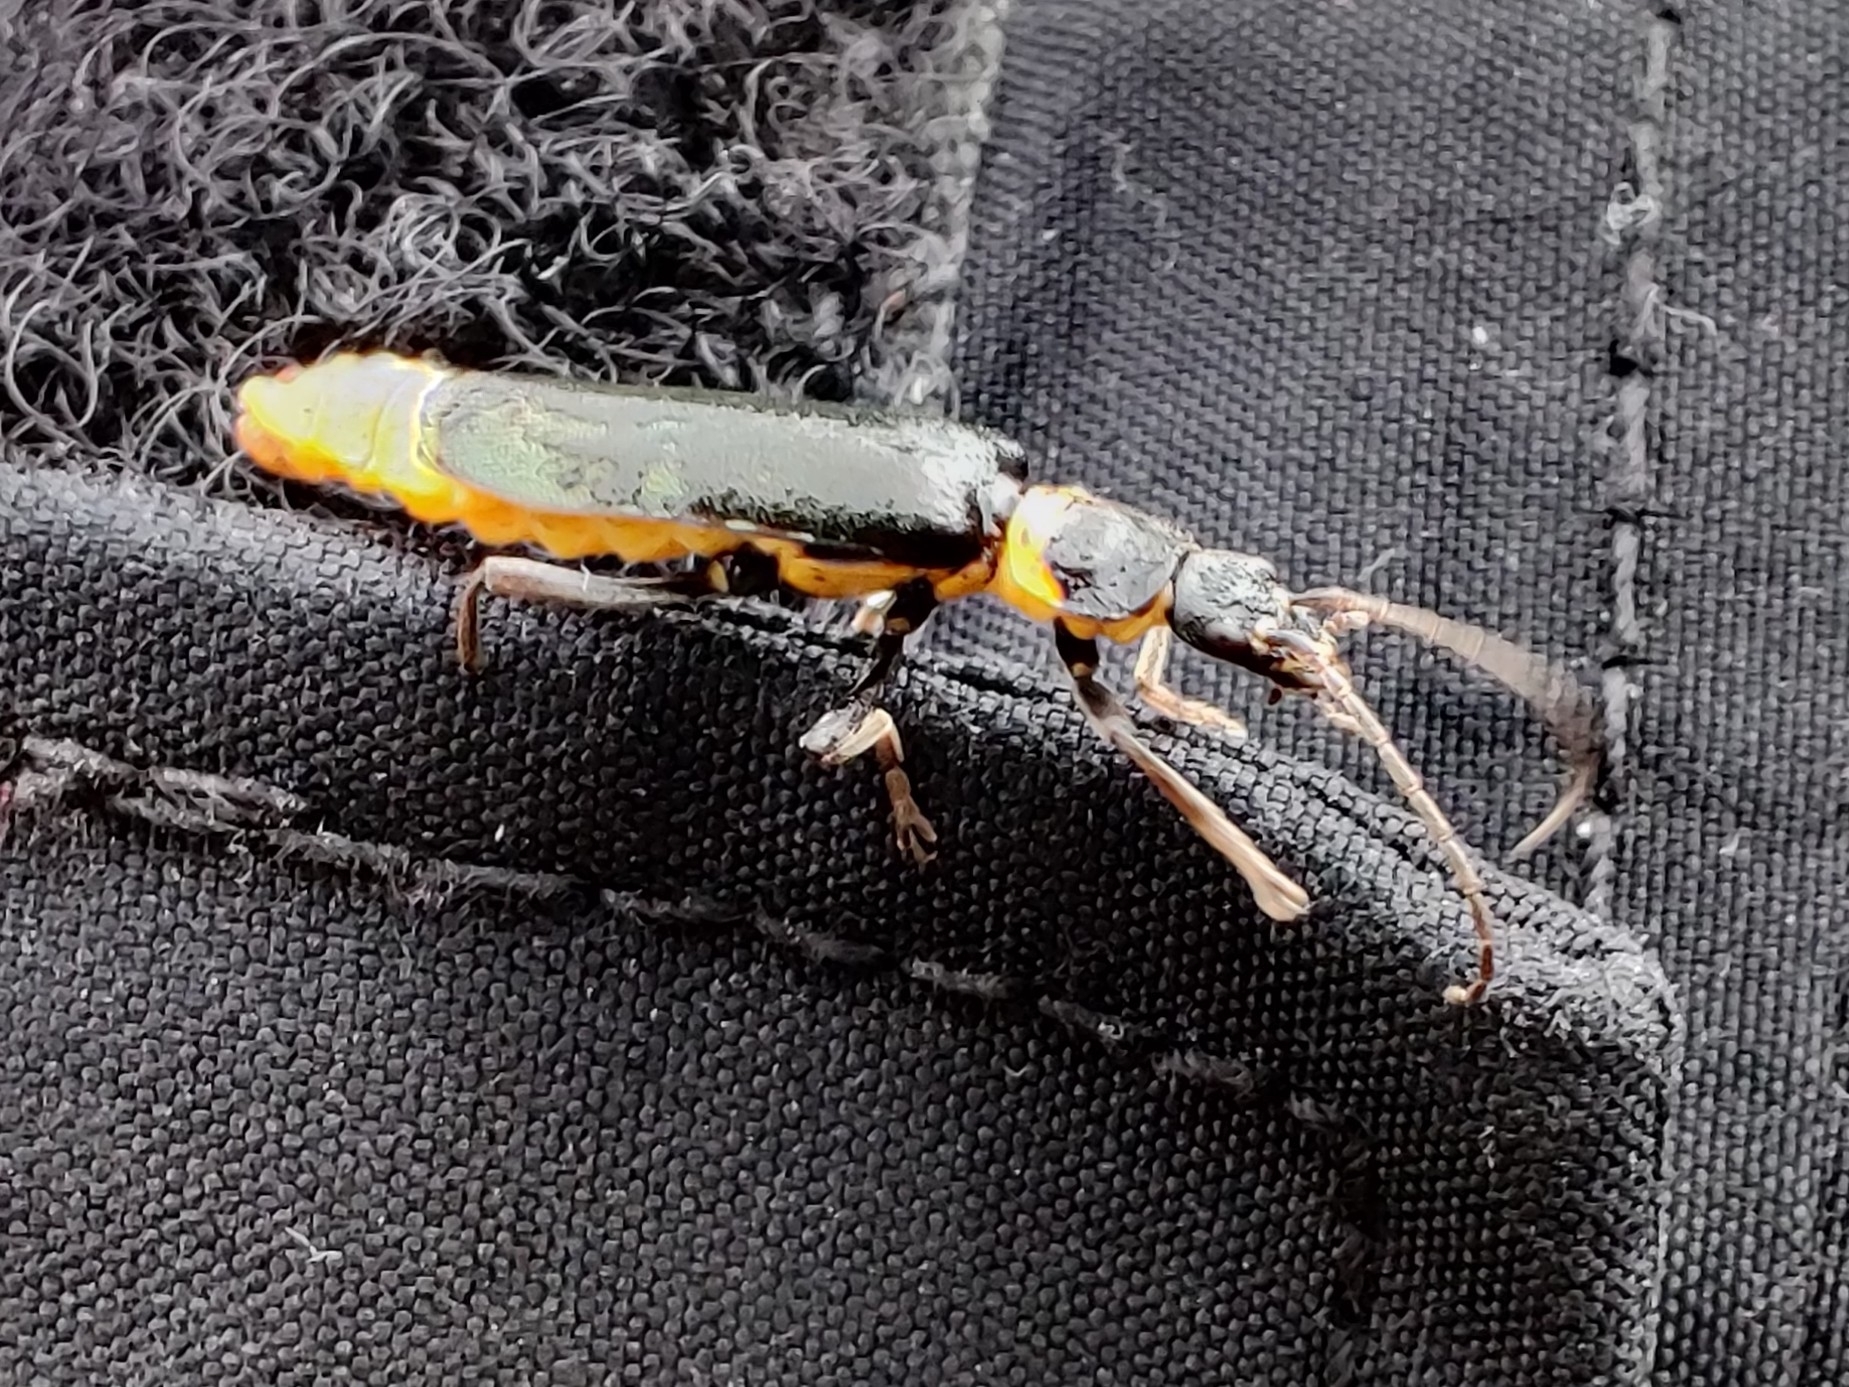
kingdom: Animalia
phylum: Arthropoda
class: Insecta
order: Coleoptera
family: Cantharidae
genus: Chauliognathus
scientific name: Chauliognathus
